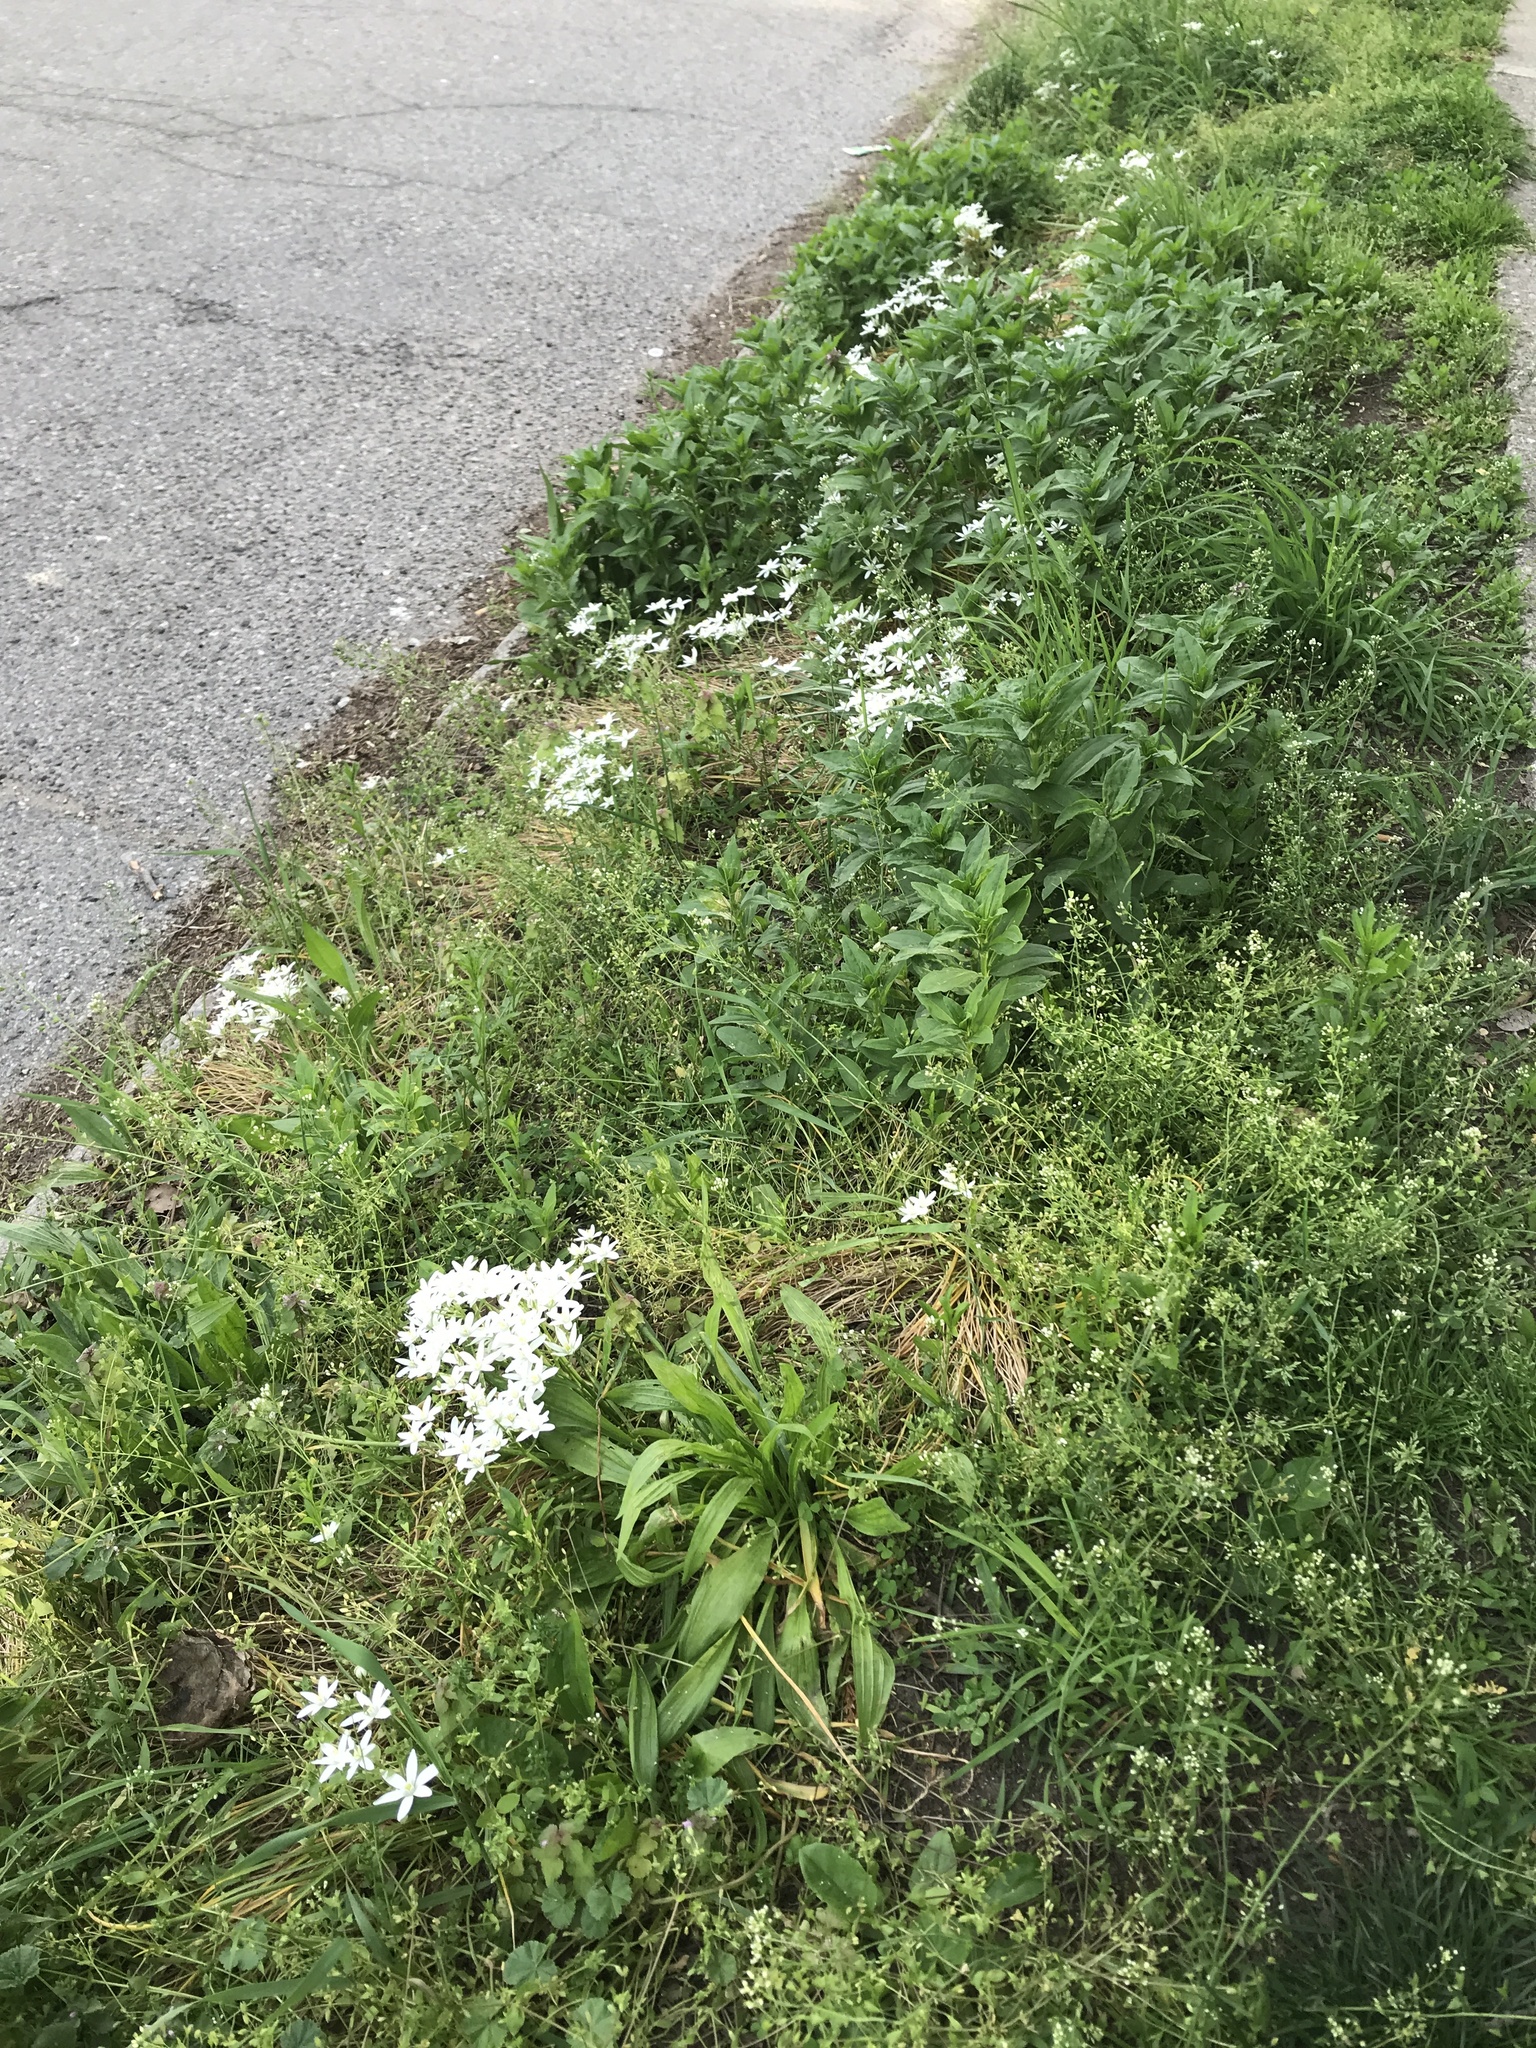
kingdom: Plantae
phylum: Tracheophyta
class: Liliopsida
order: Asparagales
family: Asparagaceae
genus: Ornithogalum
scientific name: Ornithogalum umbellatum
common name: Garden star-of-bethlehem
